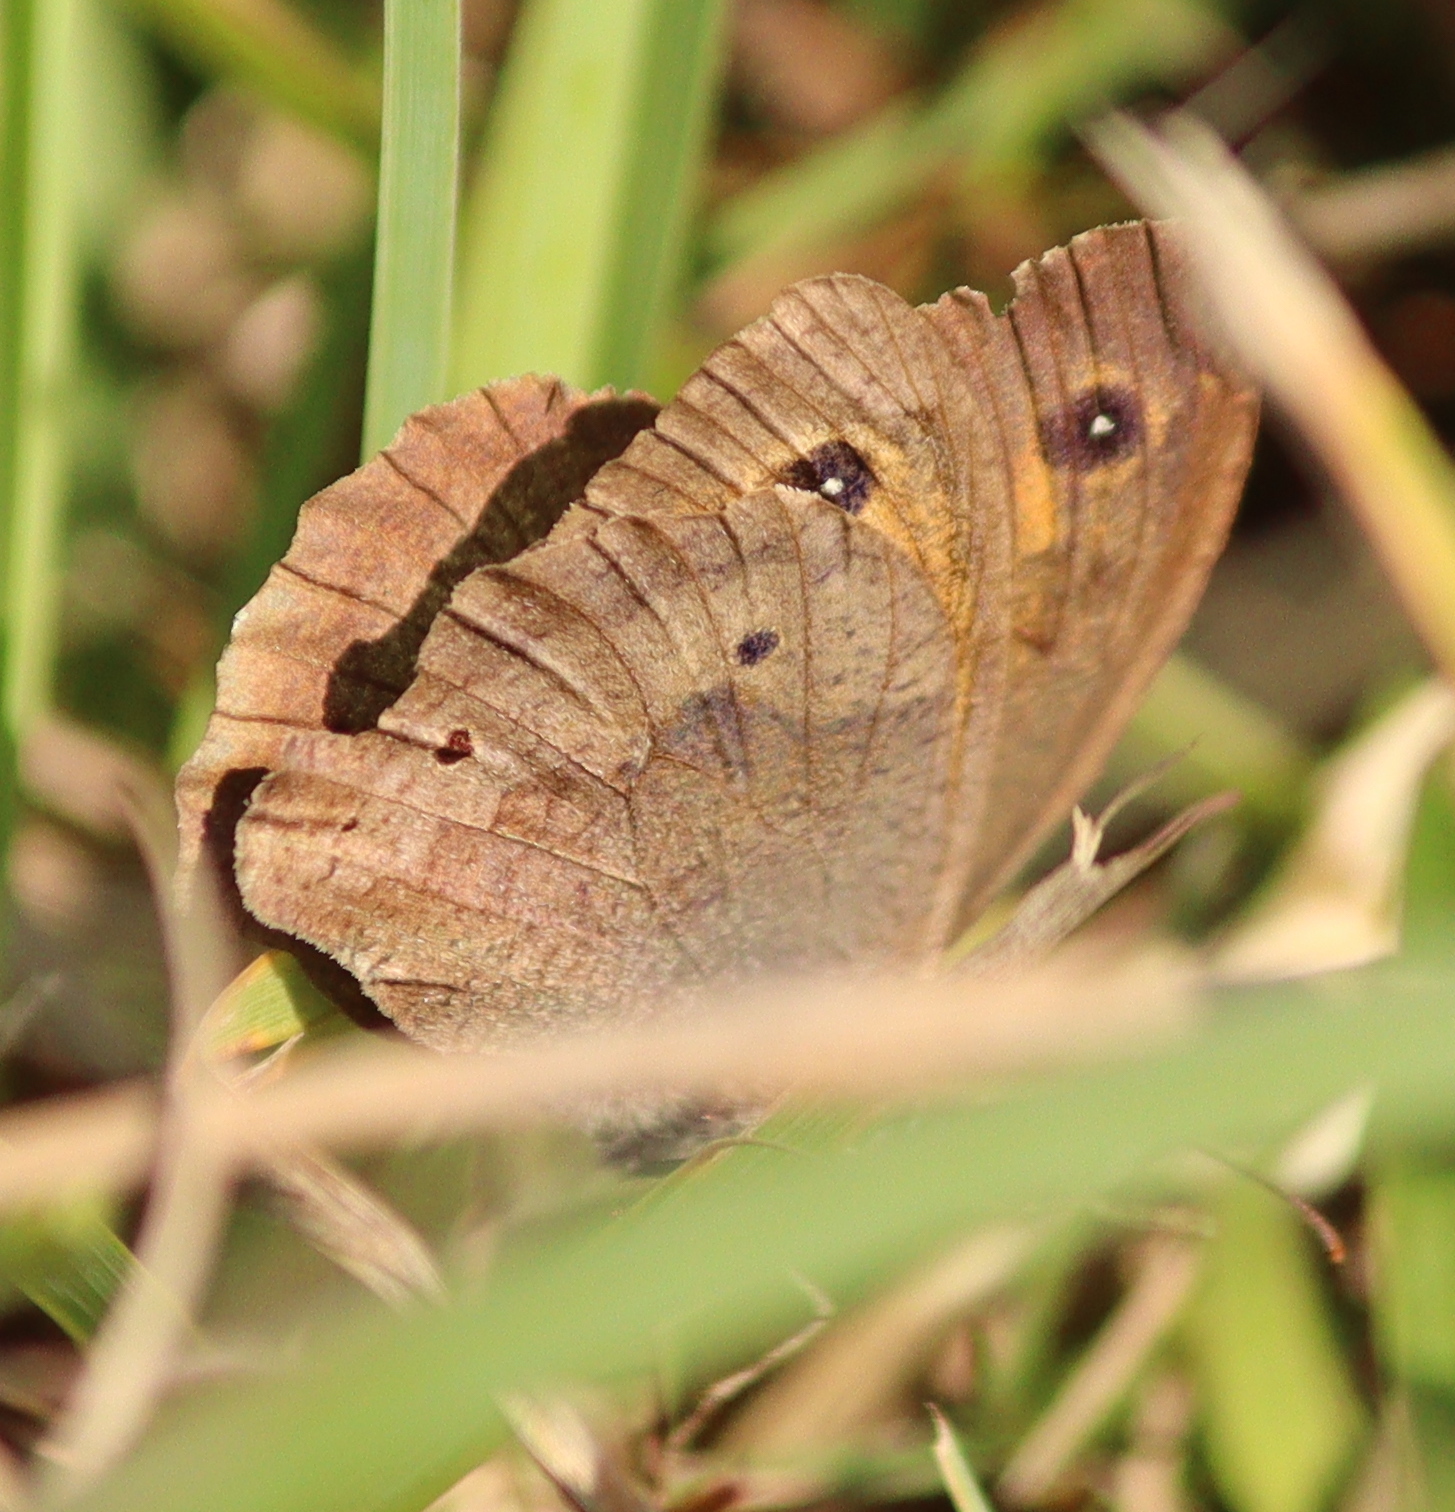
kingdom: Animalia
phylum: Arthropoda
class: Insecta
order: Lepidoptera
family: Nymphalidae
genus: Maniola
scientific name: Maniola jurtina
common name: Meadow brown
